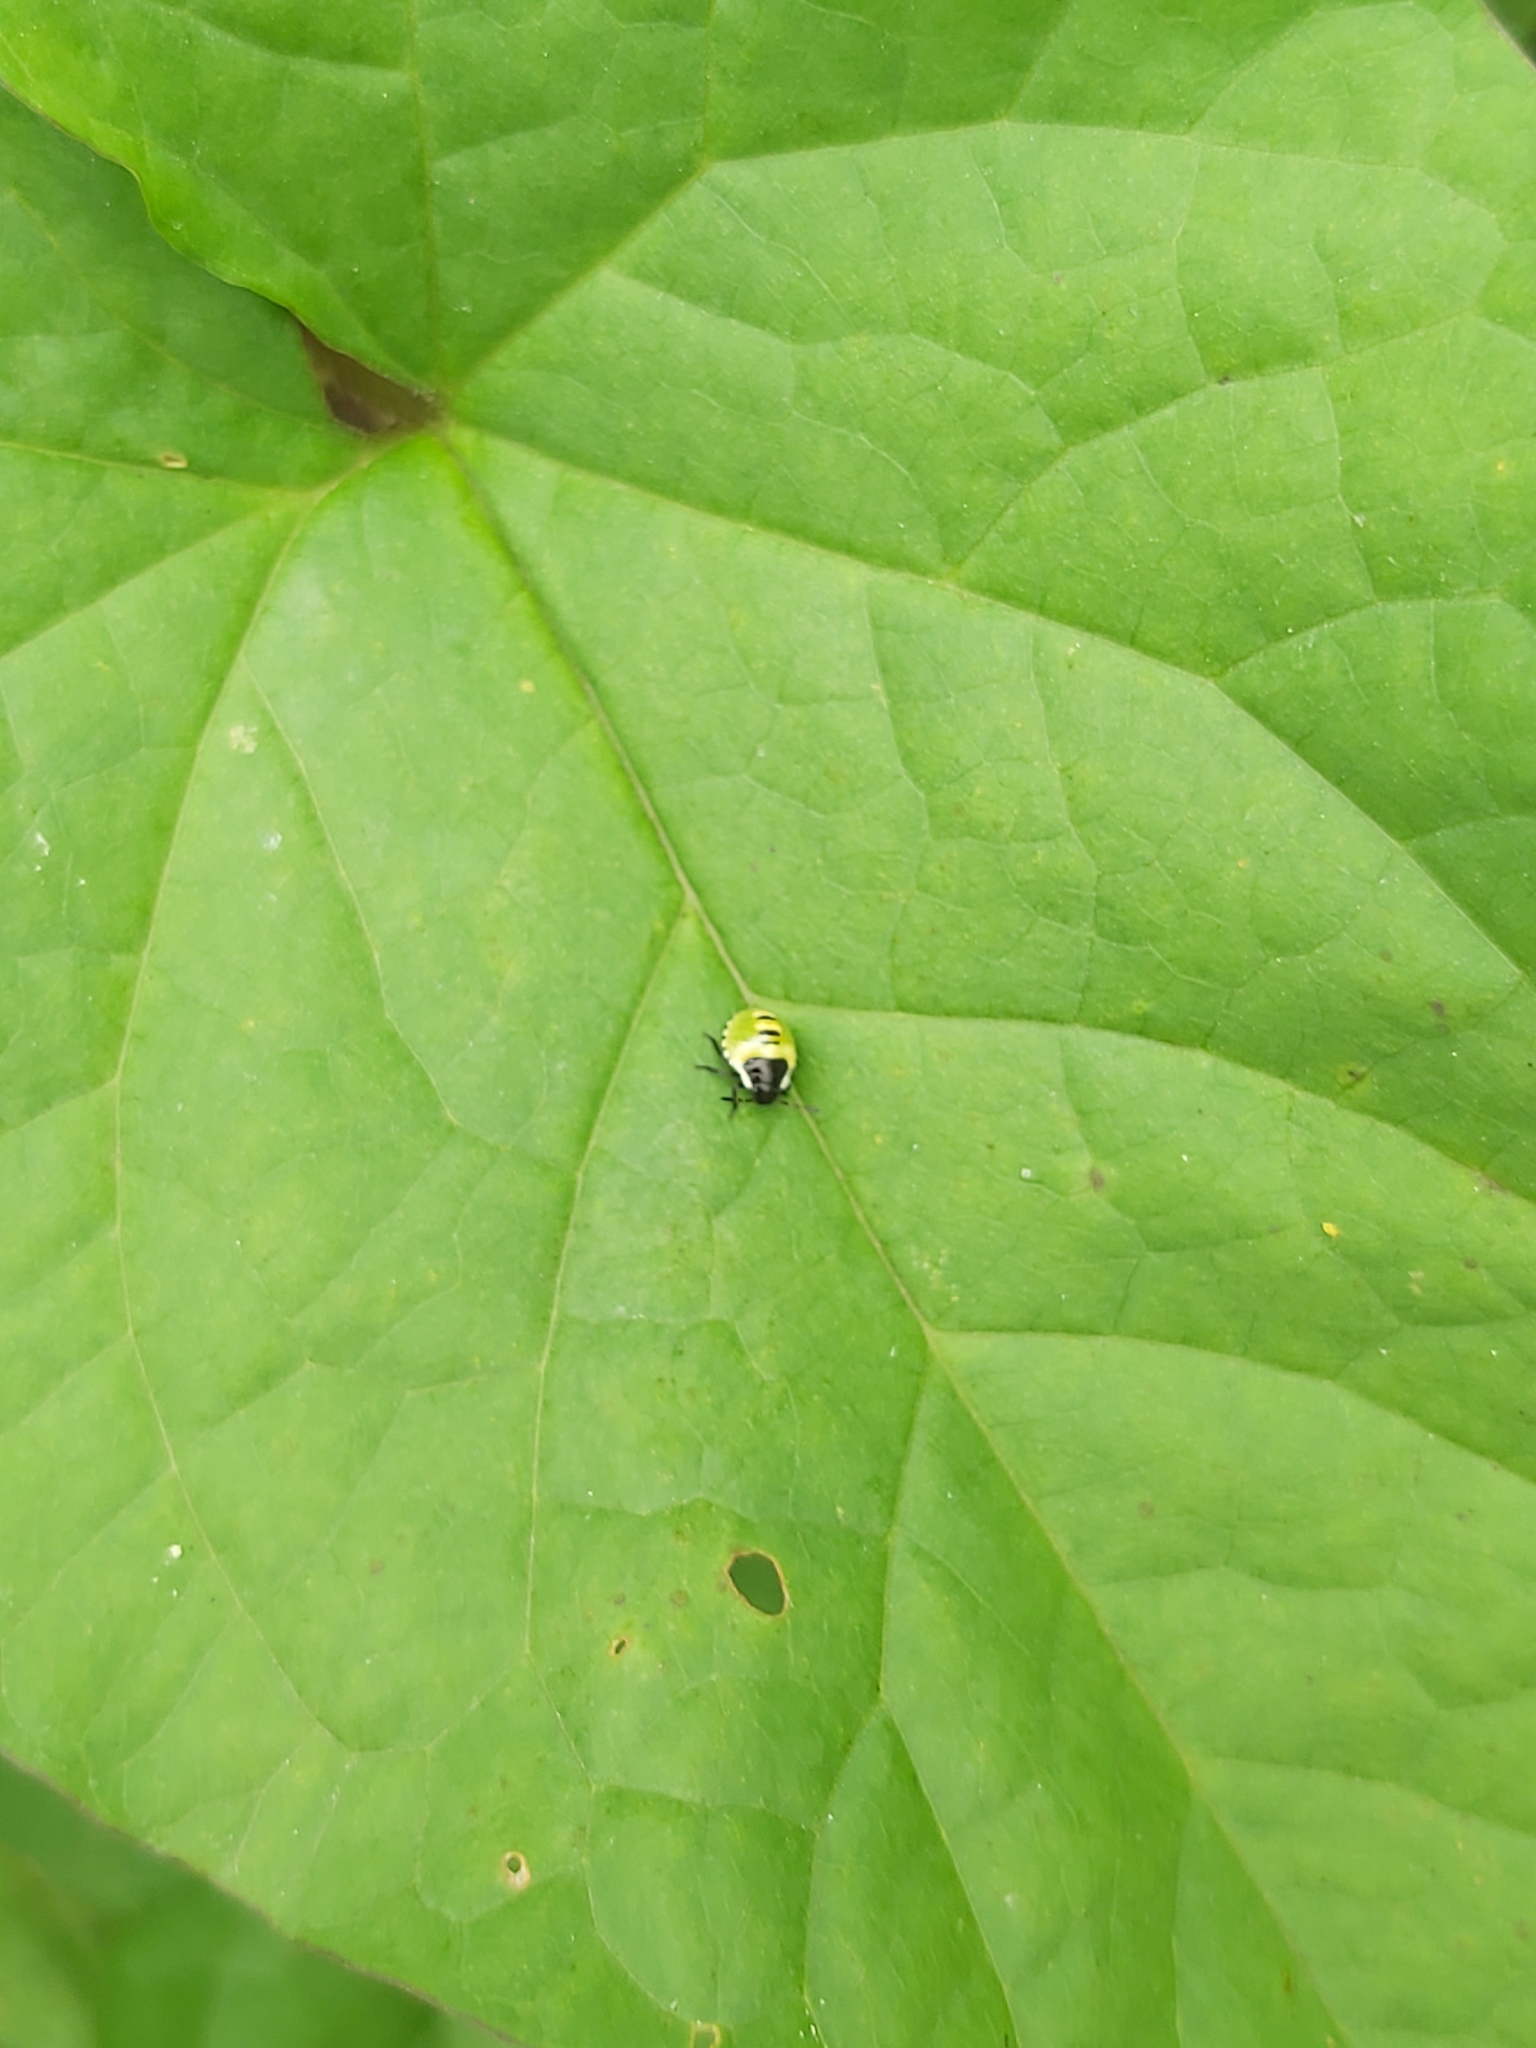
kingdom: Animalia
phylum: Arthropoda
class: Insecta
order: Hemiptera
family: Pentatomidae
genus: Palomena
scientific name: Palomena prasina
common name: Green shieldbug
